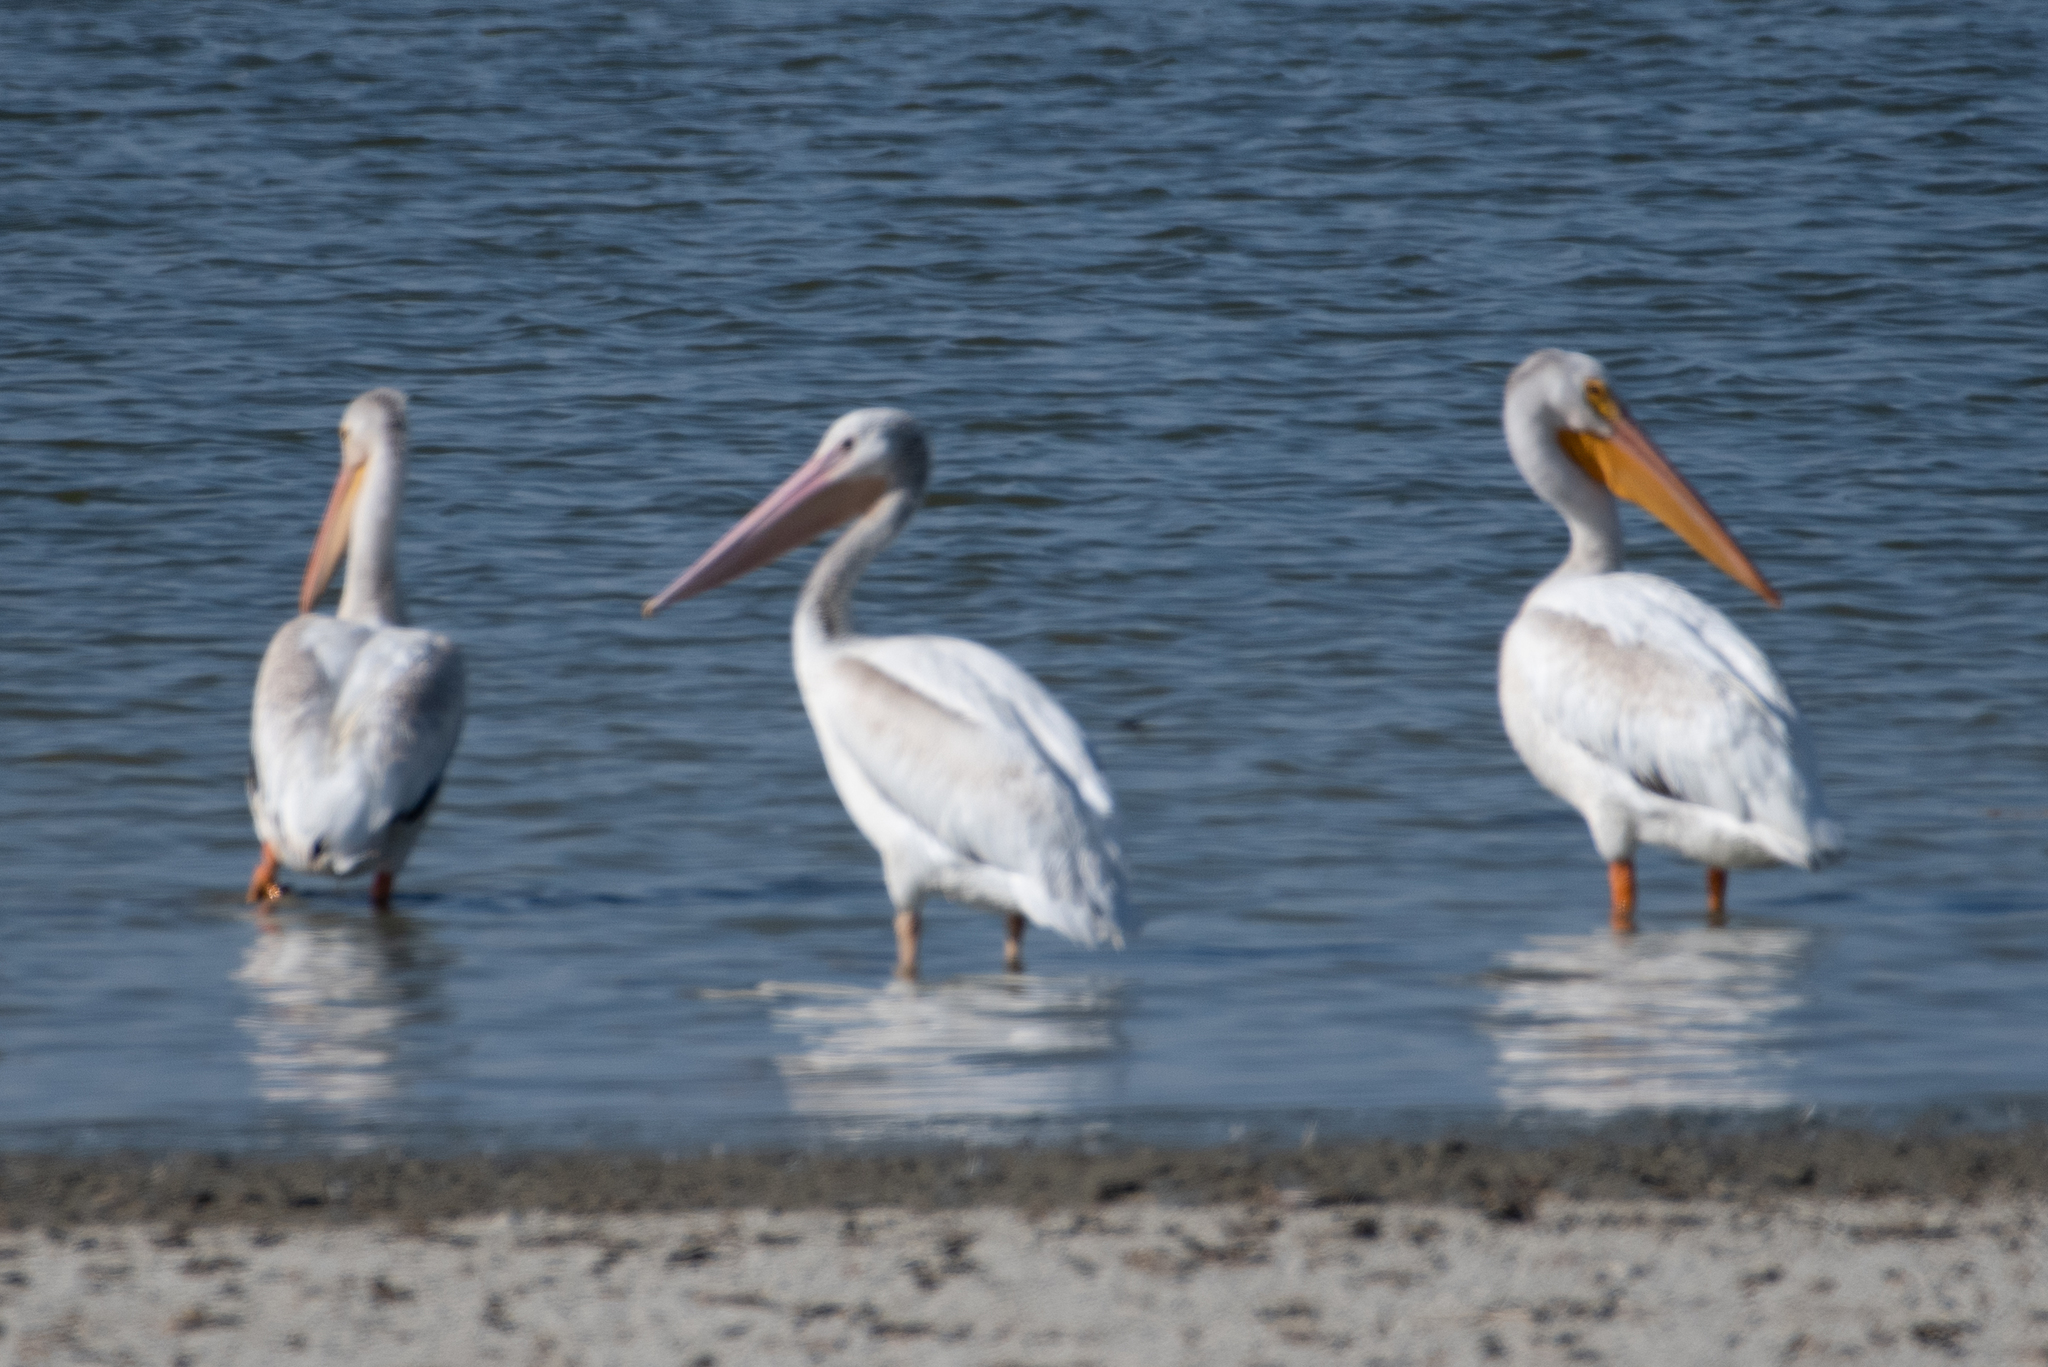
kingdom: Animalia
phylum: Chordata
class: Aves
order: Pelecaniformes
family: Pelecanidae
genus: Pelecanus
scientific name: Pelecanus erythrorhynchos
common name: American white pelican
